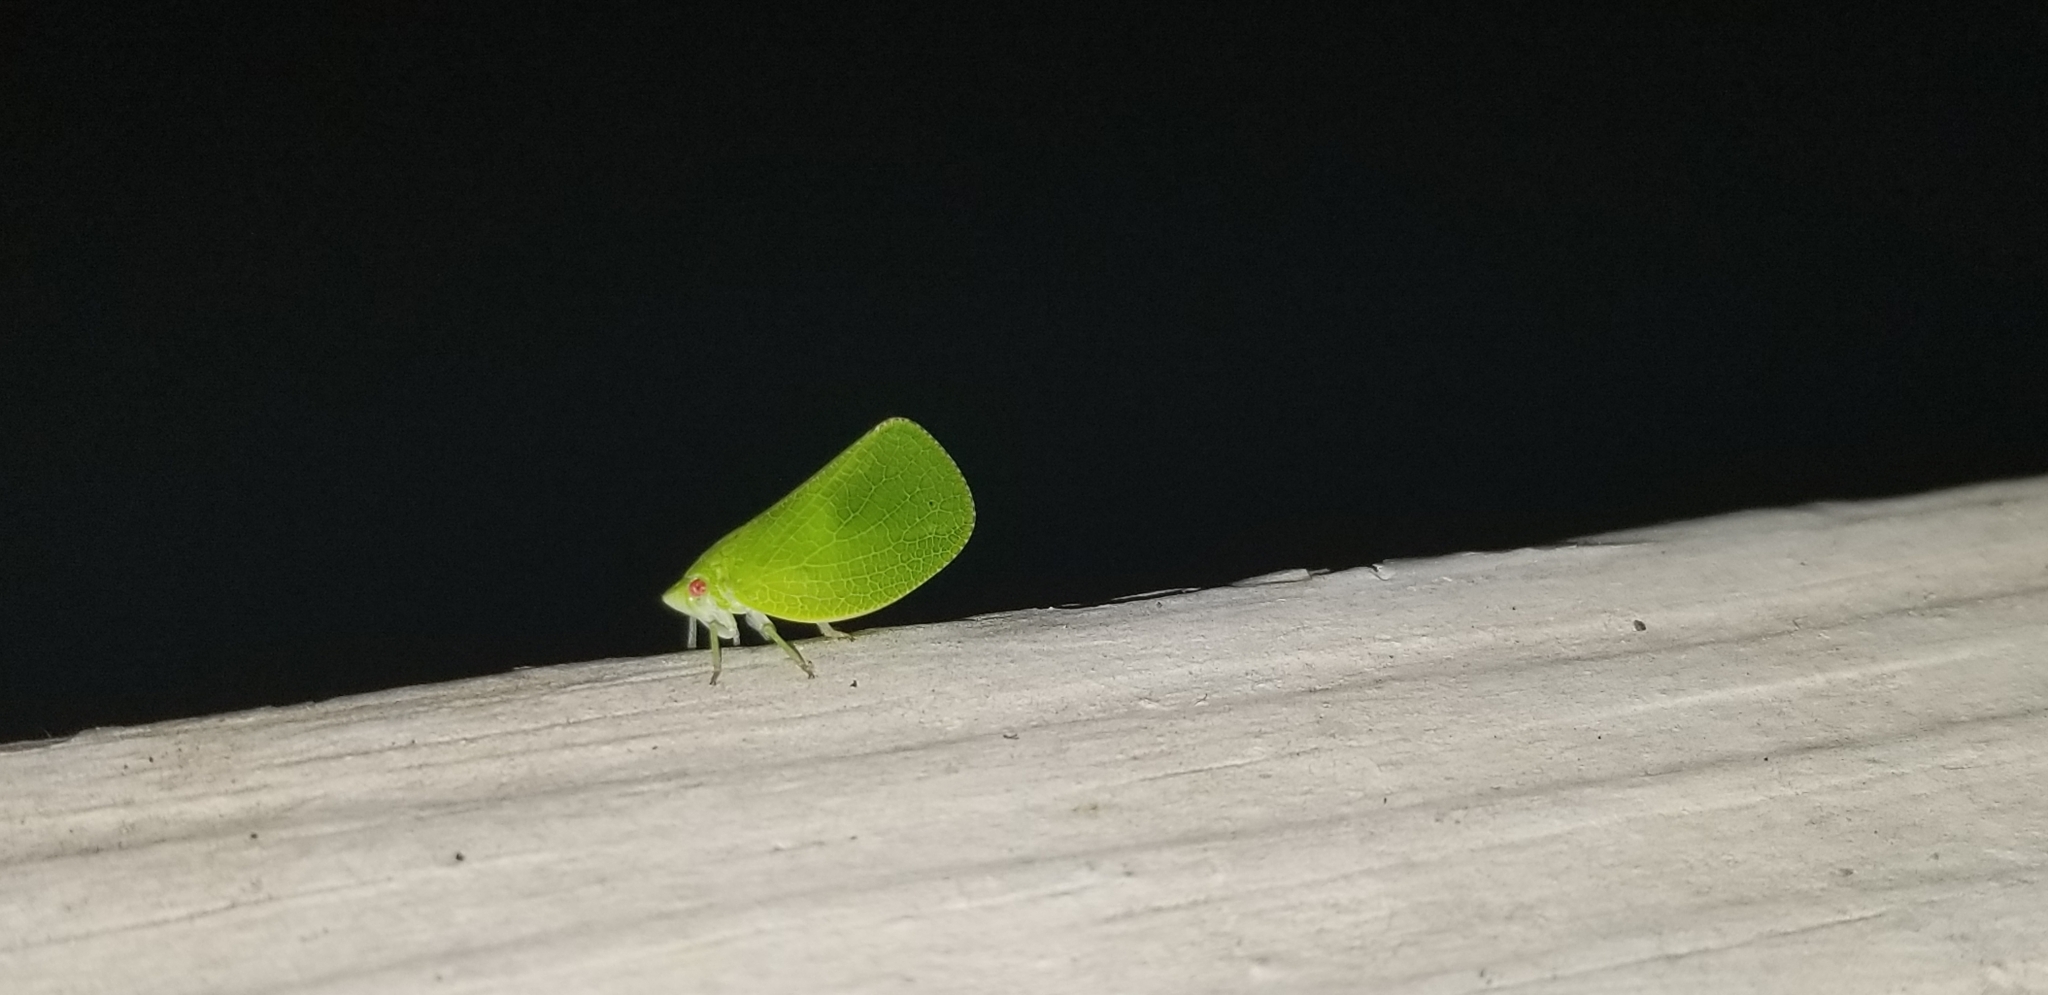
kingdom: Animalia
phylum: Arthropoda
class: Insecta
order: Hemiptera
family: Acanaloniidae
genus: Acanalonia
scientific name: Acanalonia conica
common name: Green cone-headed planthopper
